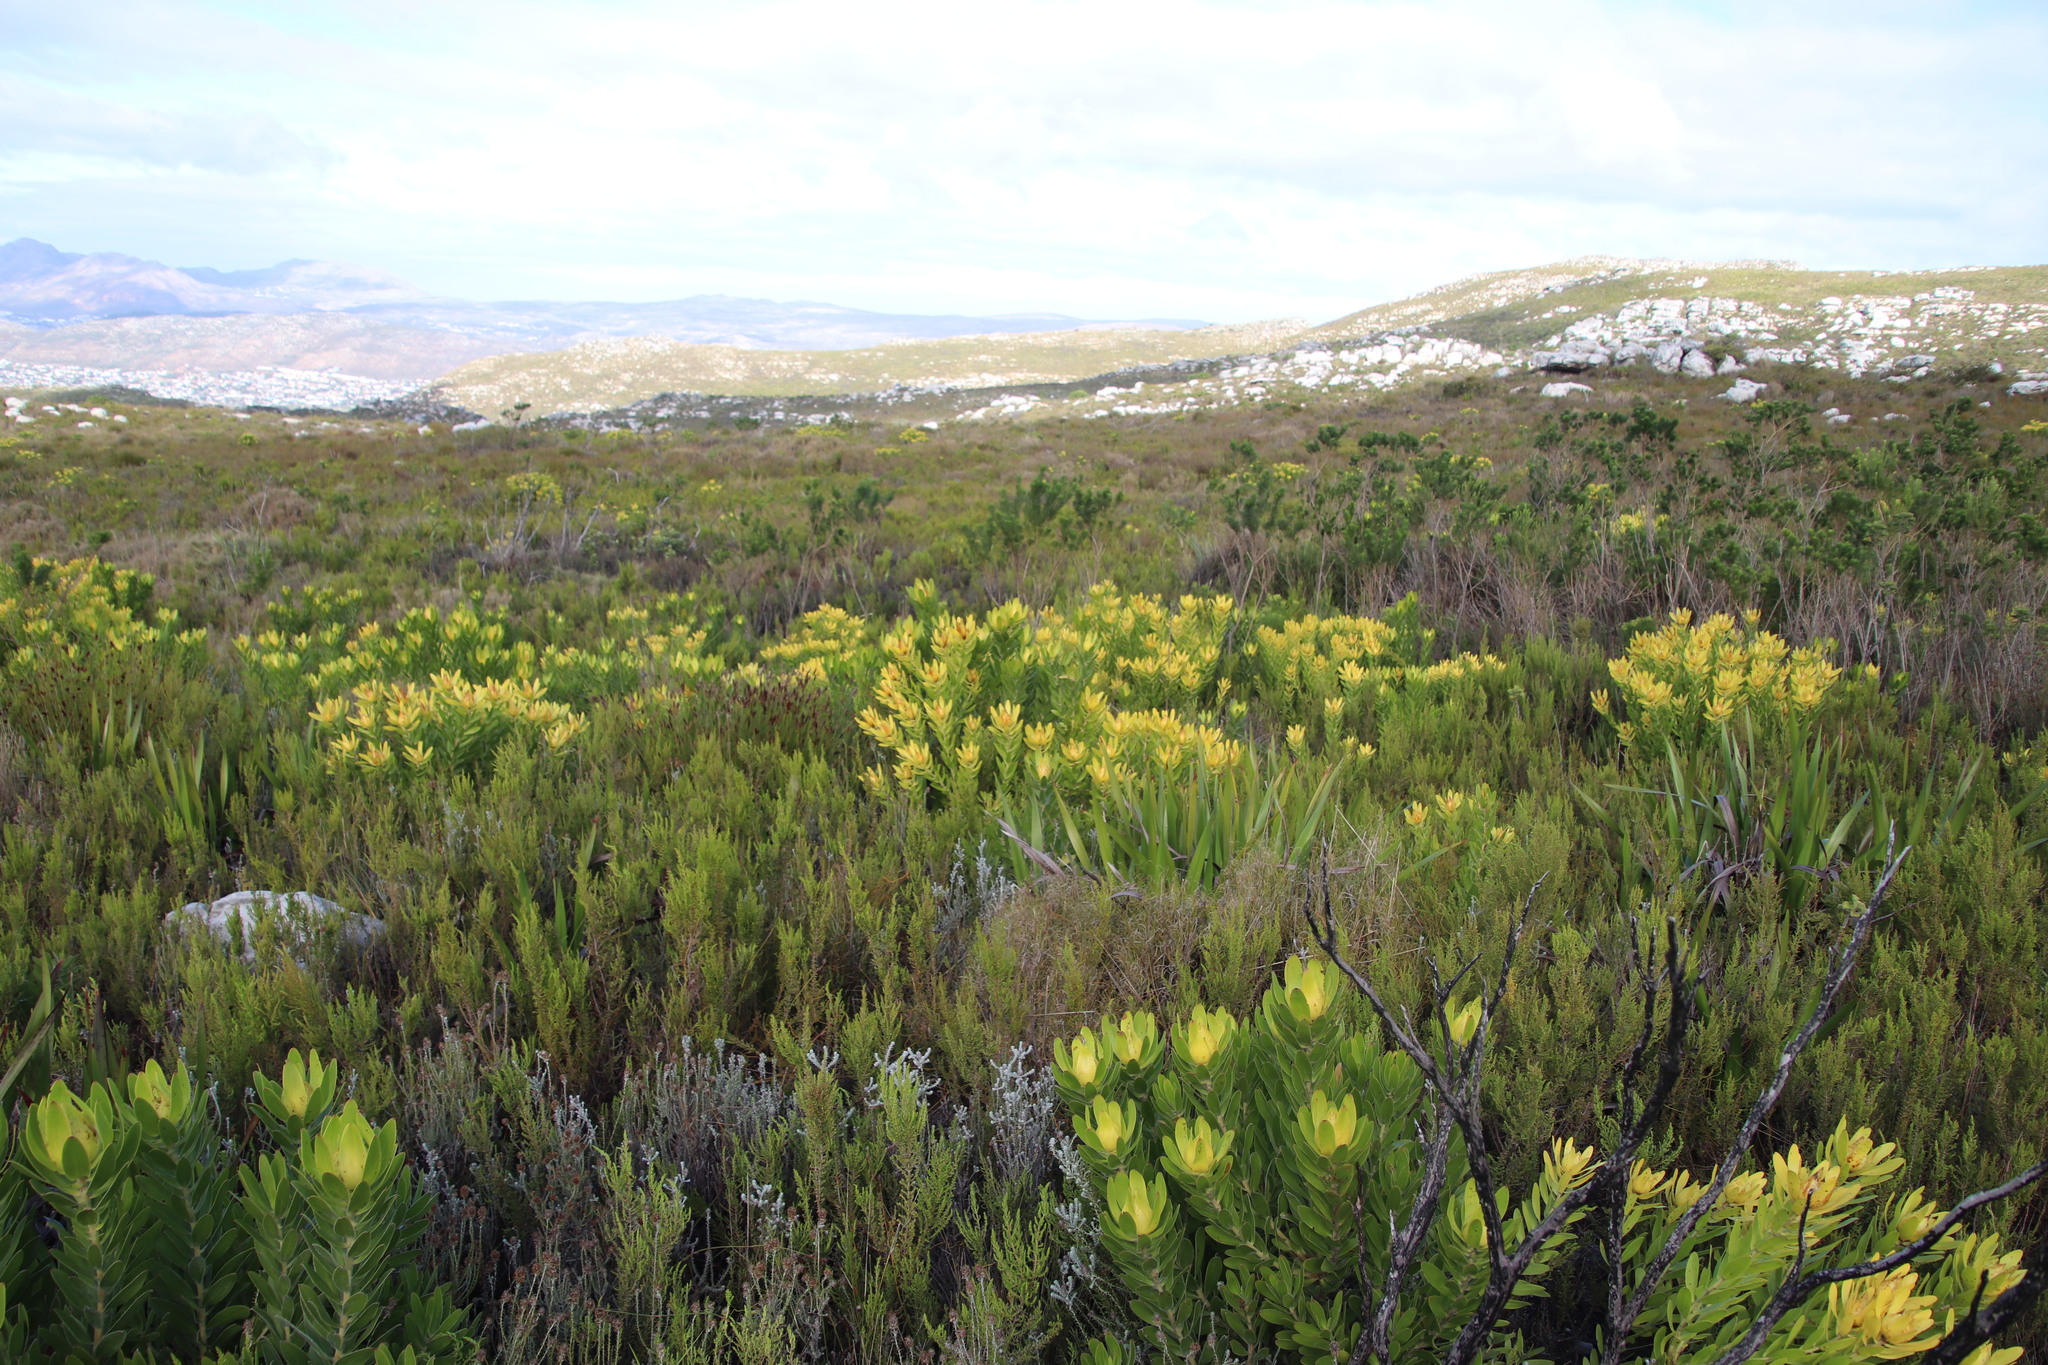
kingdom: Plantae
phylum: Tracheophyta
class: Magnoliopsida
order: Proteales
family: Proteaceae
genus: Leucadendron
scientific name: Leucadendron laureolum
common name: Golden sunshinebush
